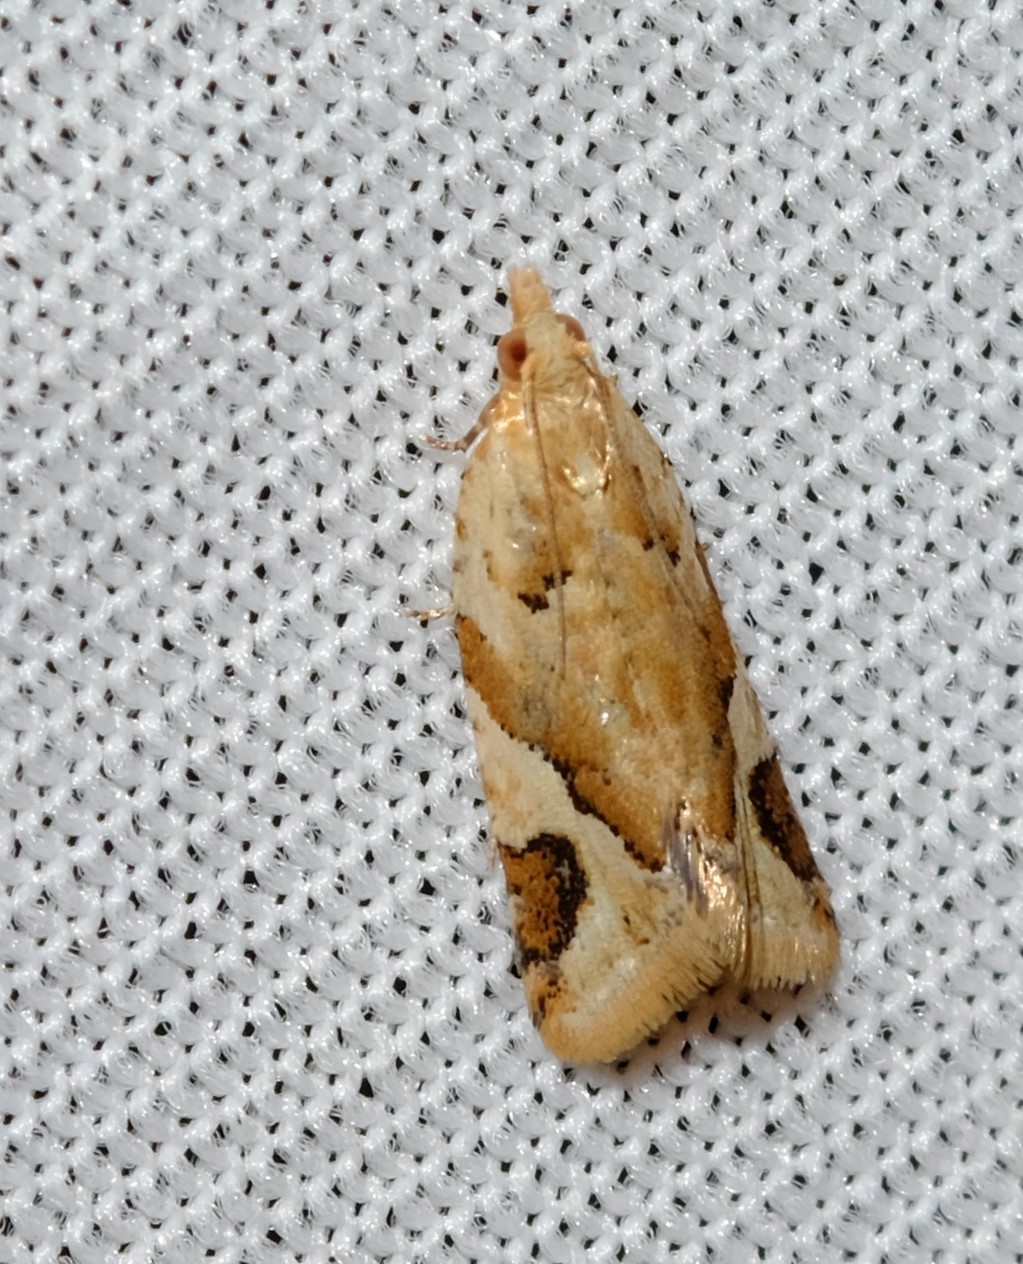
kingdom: Animalia
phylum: Arthropoda
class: Insecta
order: Lepidoptera
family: Tortricidae
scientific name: Tortricidae
